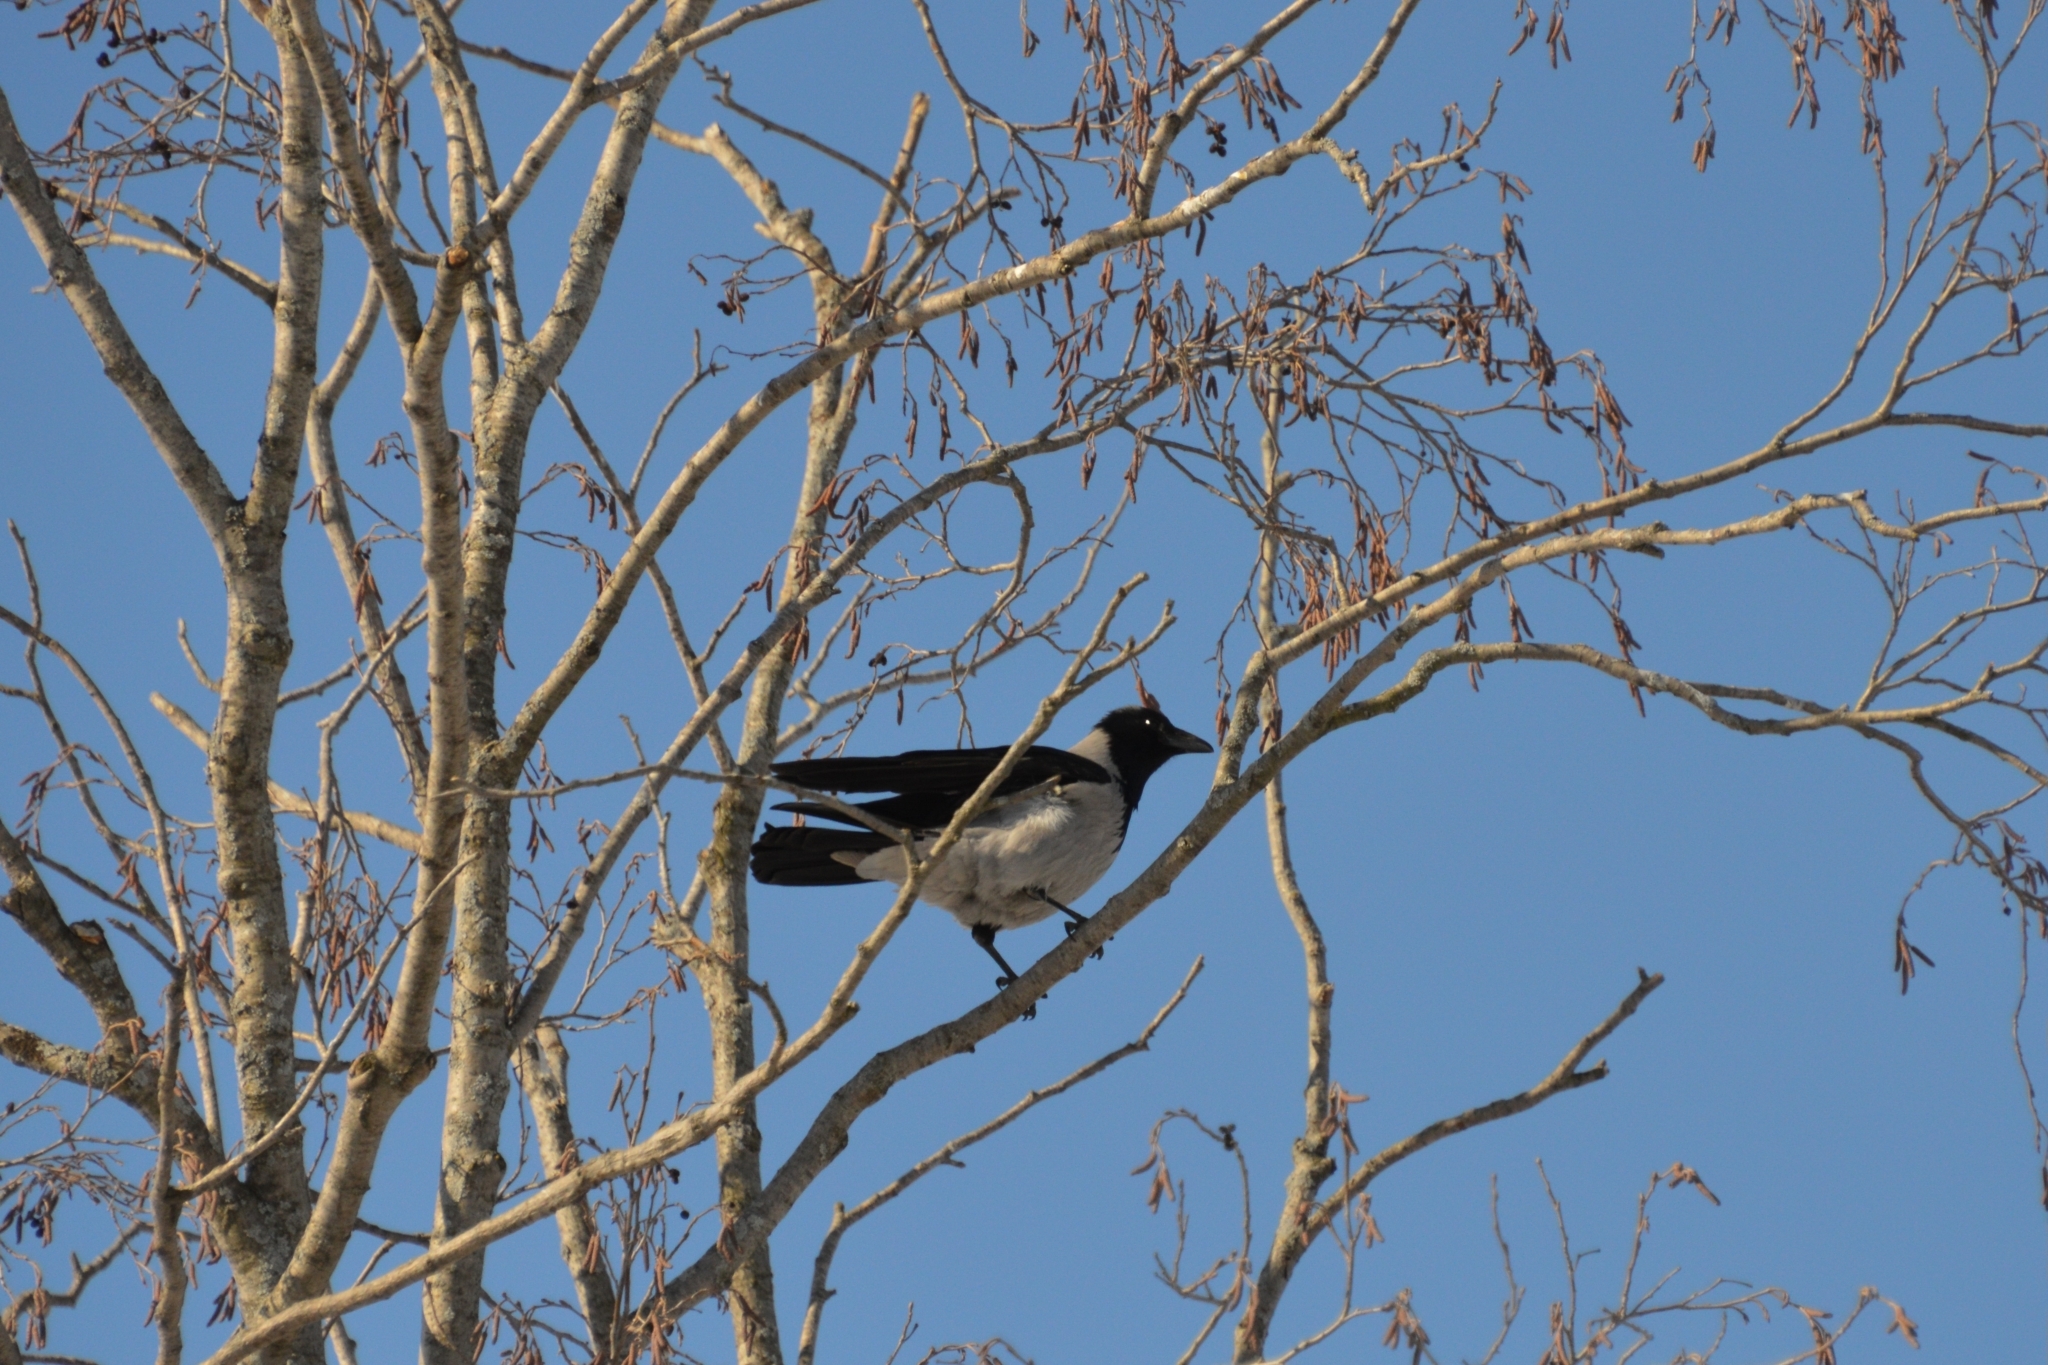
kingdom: Animalia
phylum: Chordata
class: Aves
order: Passeriformes
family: Corvidae
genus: Corvus
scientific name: Corvus cornix
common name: Hooded crow
